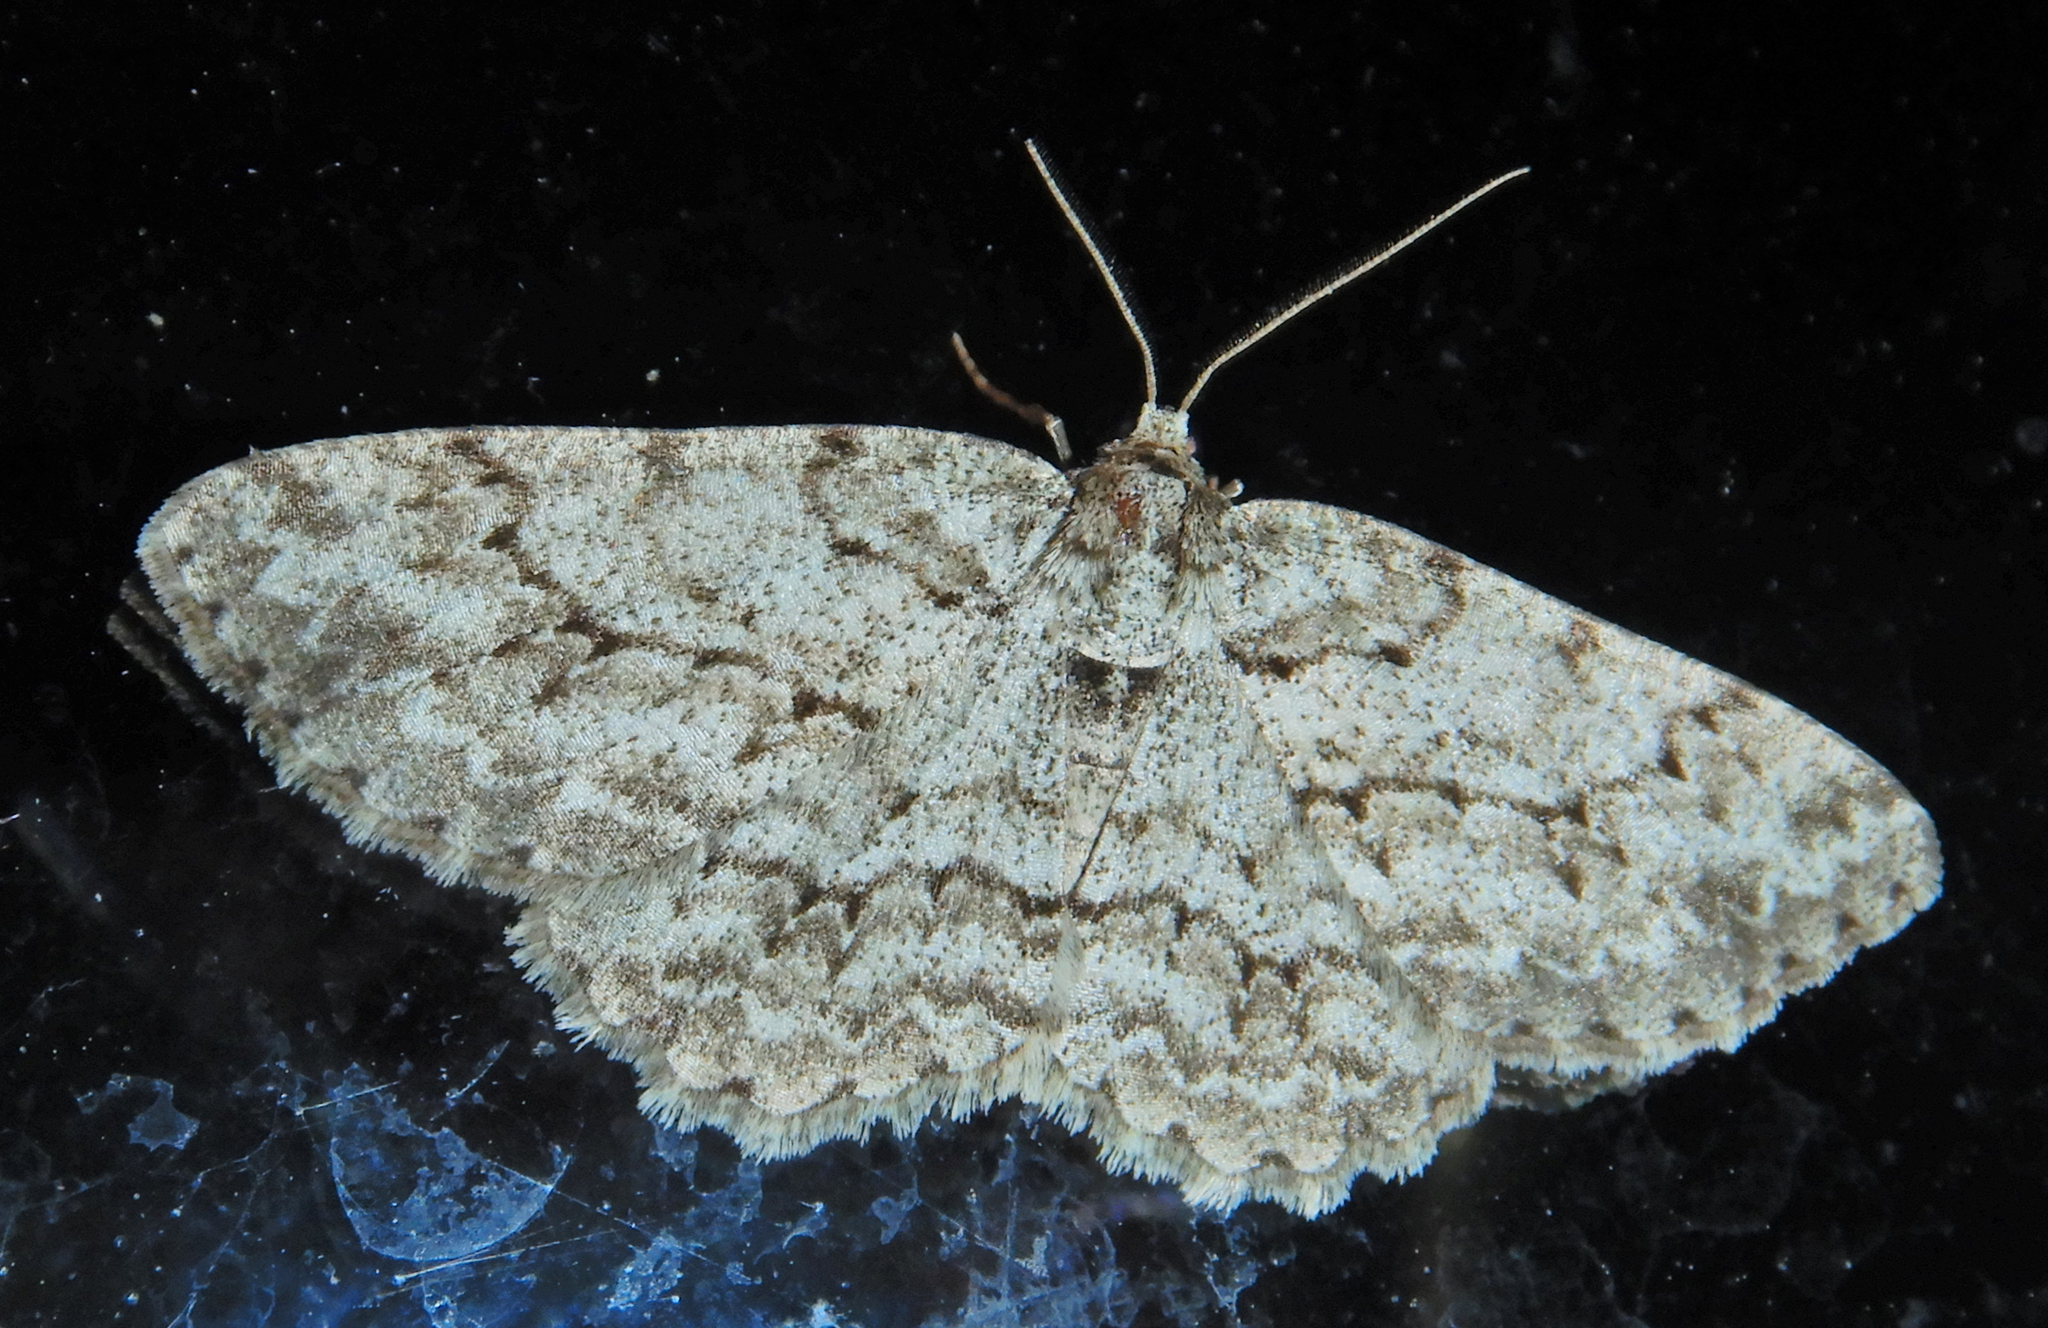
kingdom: Animalia
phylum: Arthropoda
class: Insecta
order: Lepidoptera
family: Geometridae
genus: Ectropis
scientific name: Ectropis crepuscularia
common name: Engrailed
